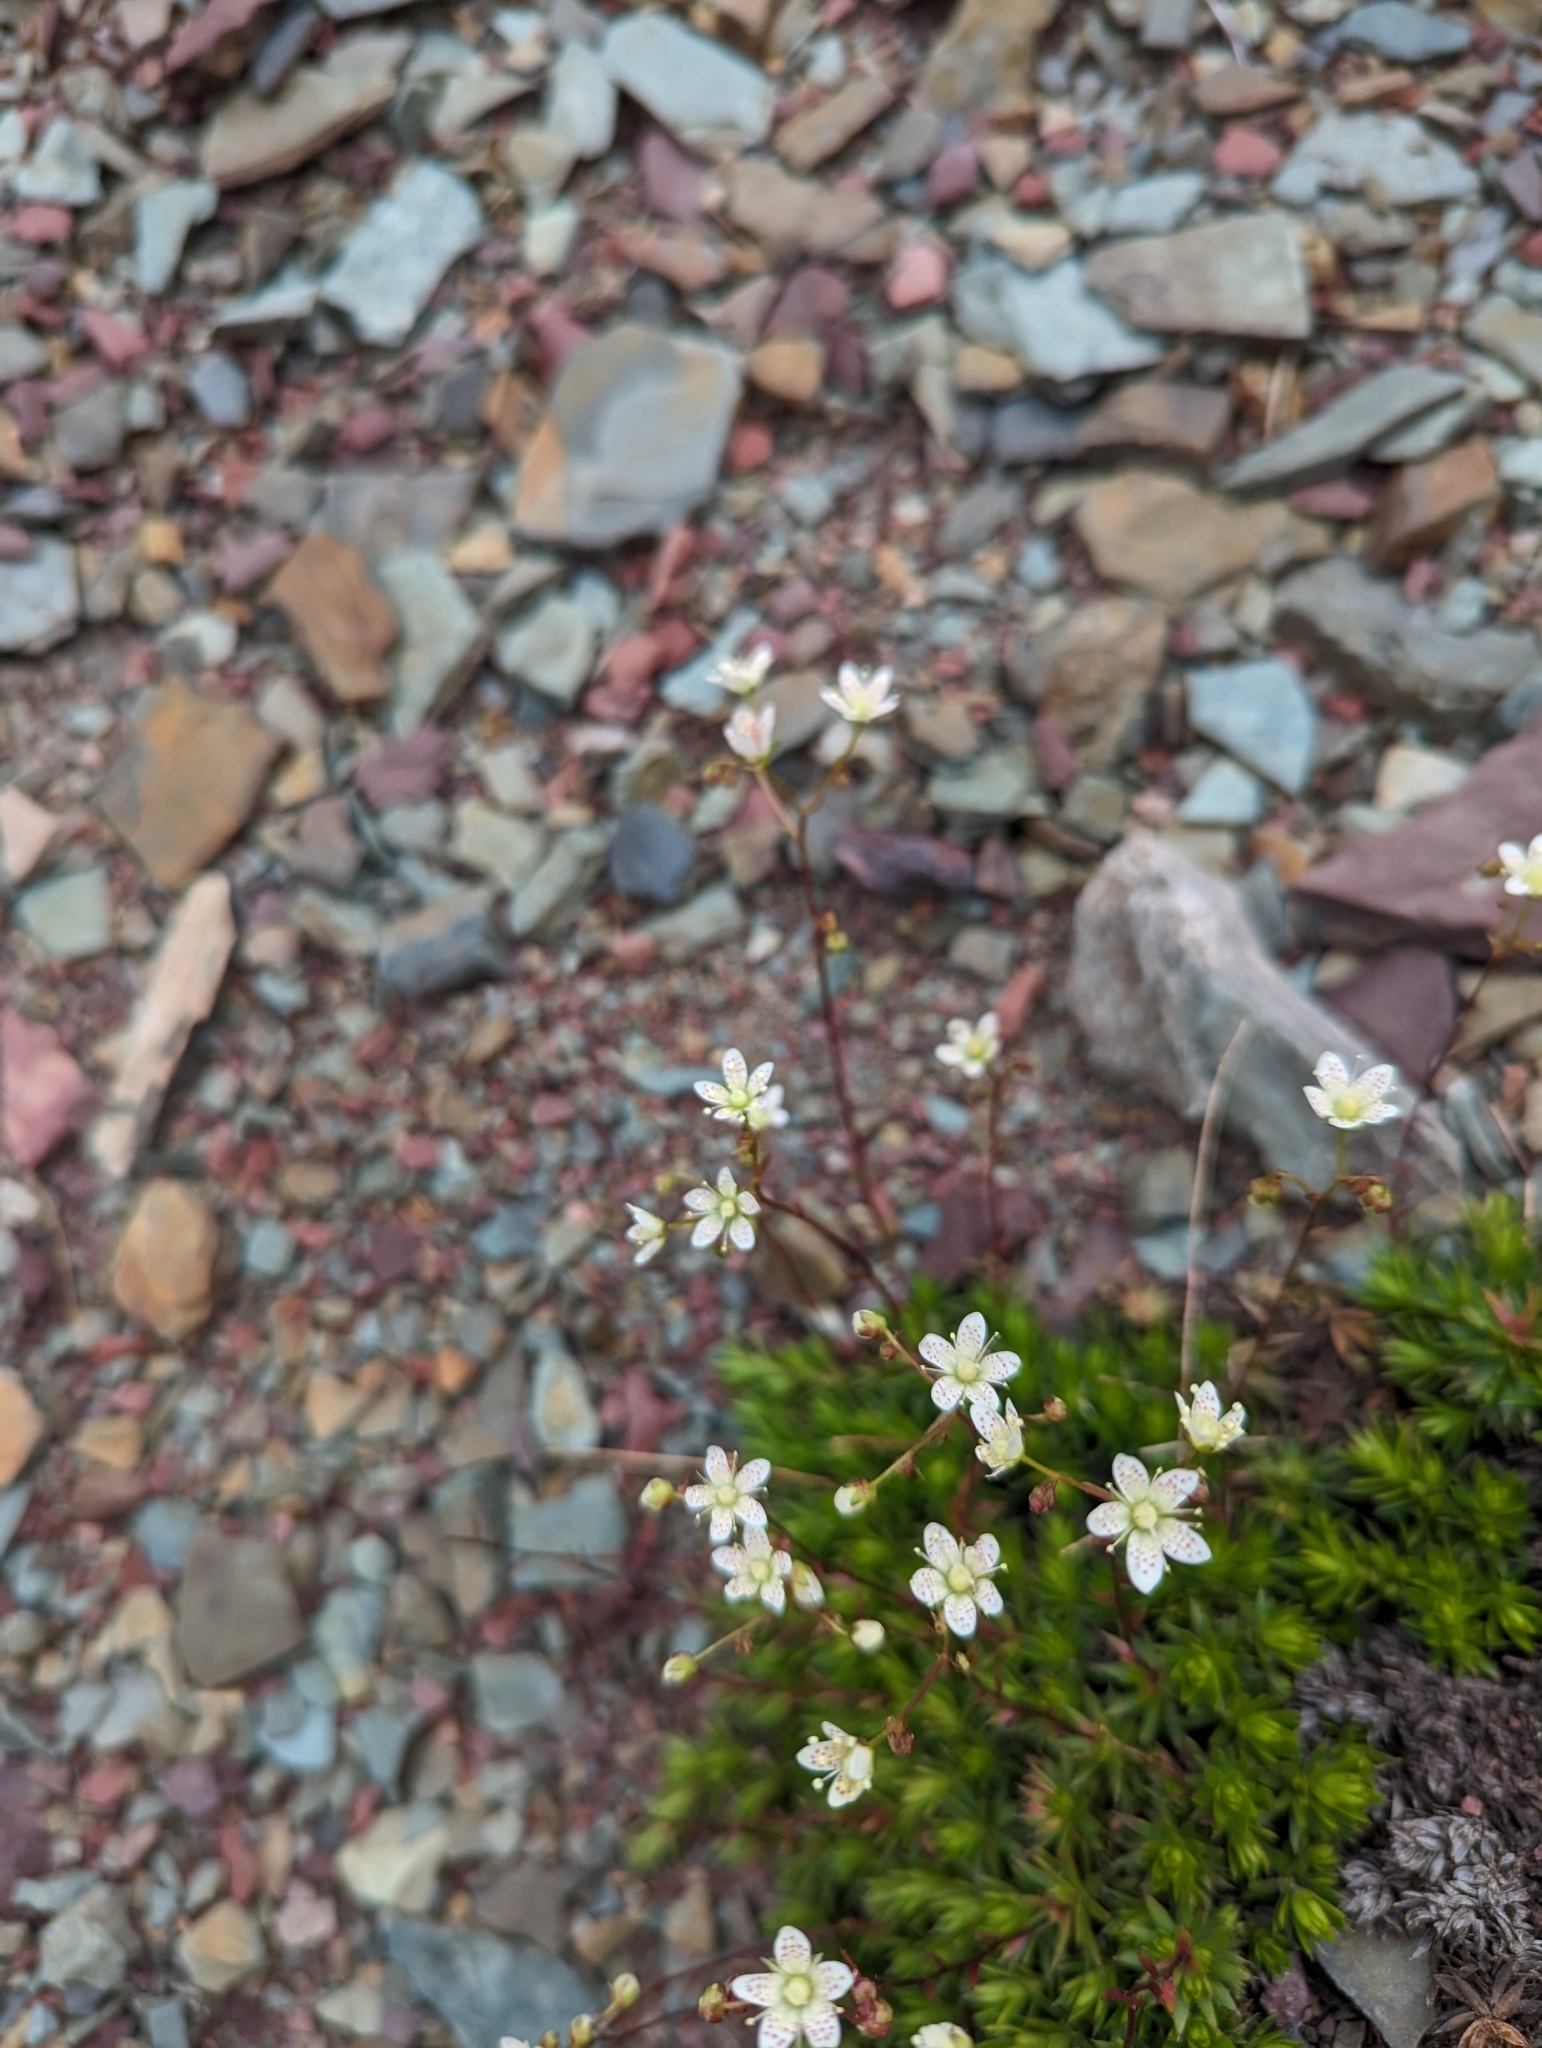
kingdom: Plantae
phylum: Tracheophyta
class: Magnoliopsida
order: Saxifragales
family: Saxifragaceae
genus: Saxifraga
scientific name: Saxifraga bronchialis
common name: Matted saxifrage
